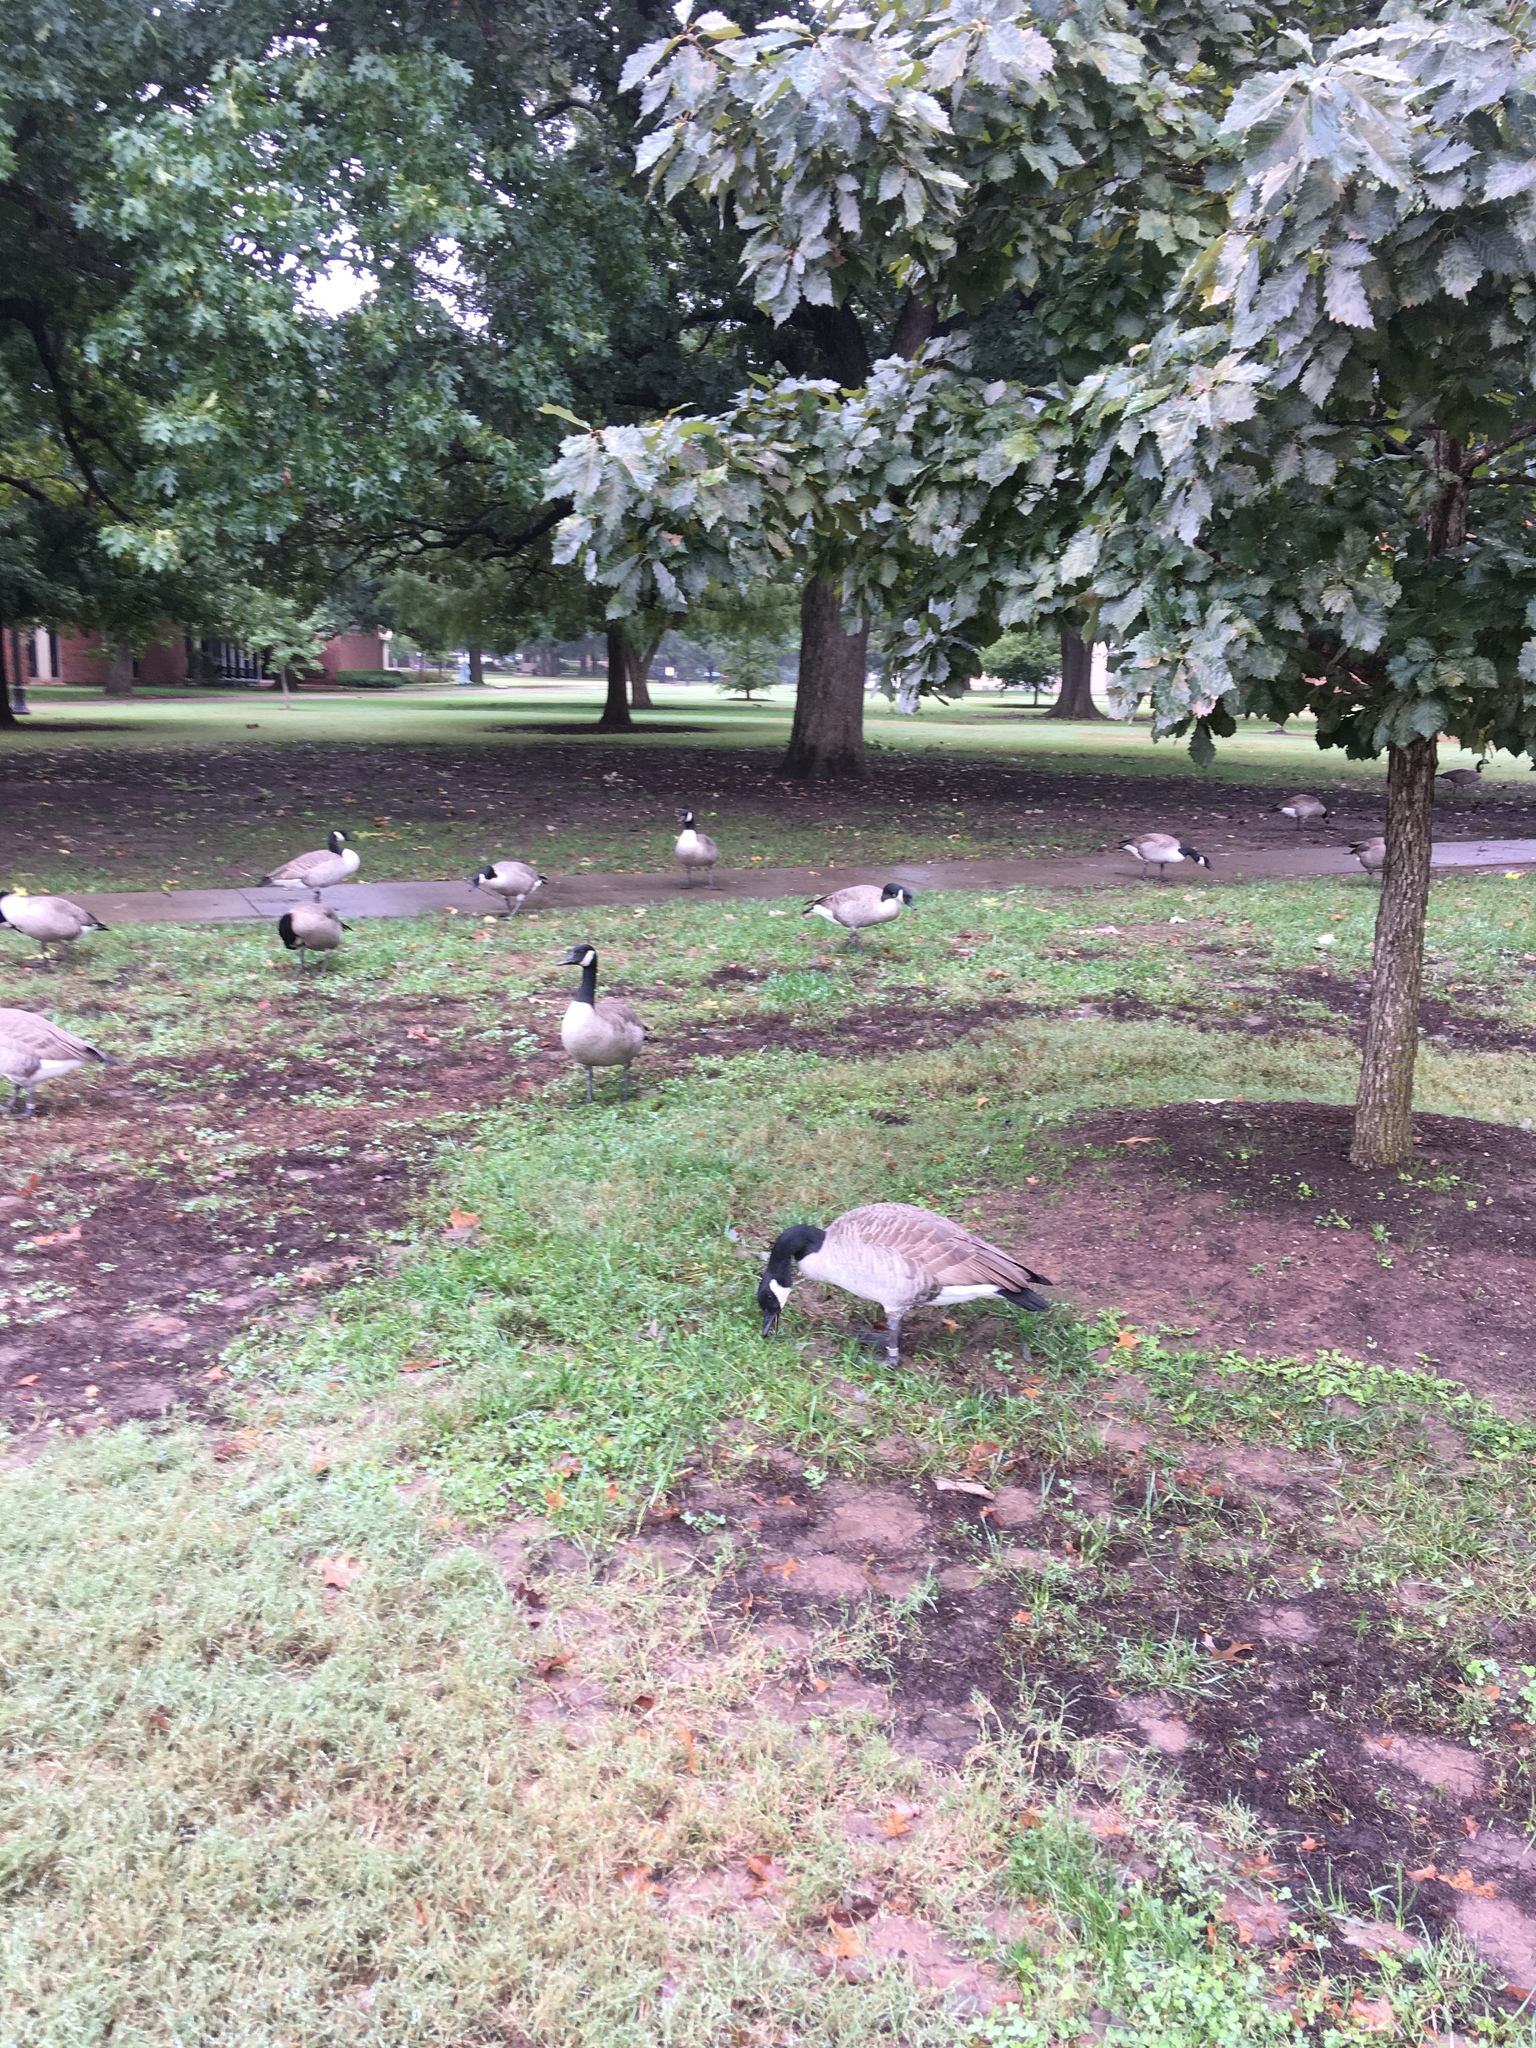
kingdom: Animalia
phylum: Chordata
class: Aves
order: Anseriformes
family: Anatidae
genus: Branta
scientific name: Branta canadensis
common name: Canada goose
